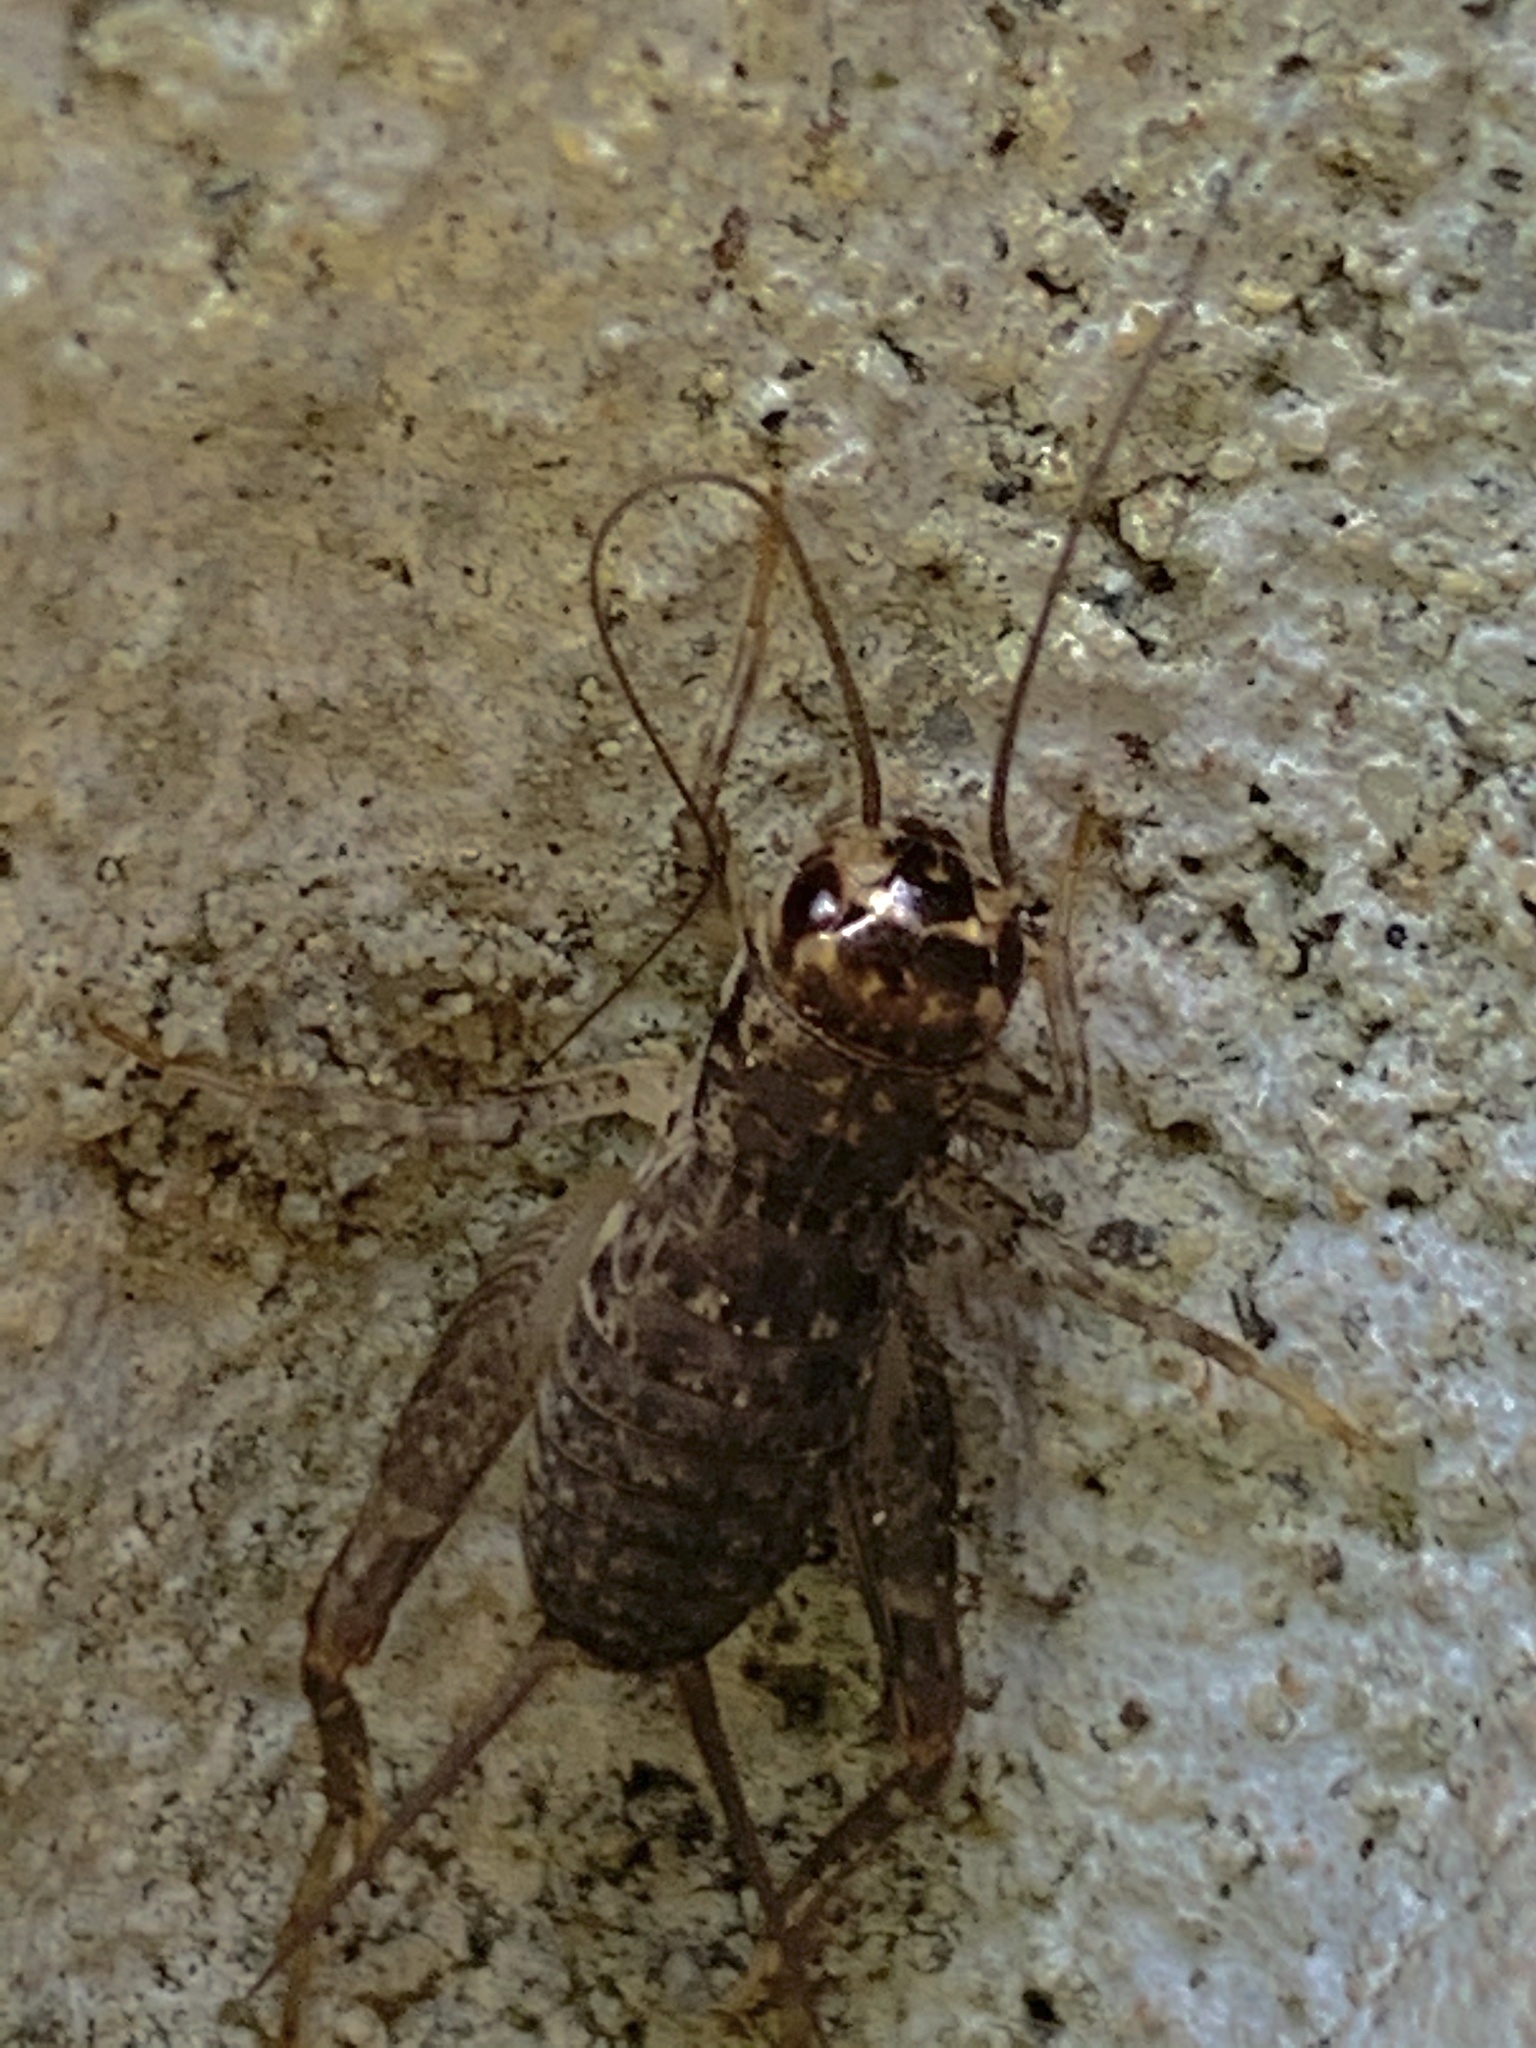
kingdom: Animalia
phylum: Arthropoda
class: Insecta
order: Orthoptera
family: Gryllidae
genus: Velarifictorus
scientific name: Velarifictorus micado
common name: Japanese burrowing cricket
